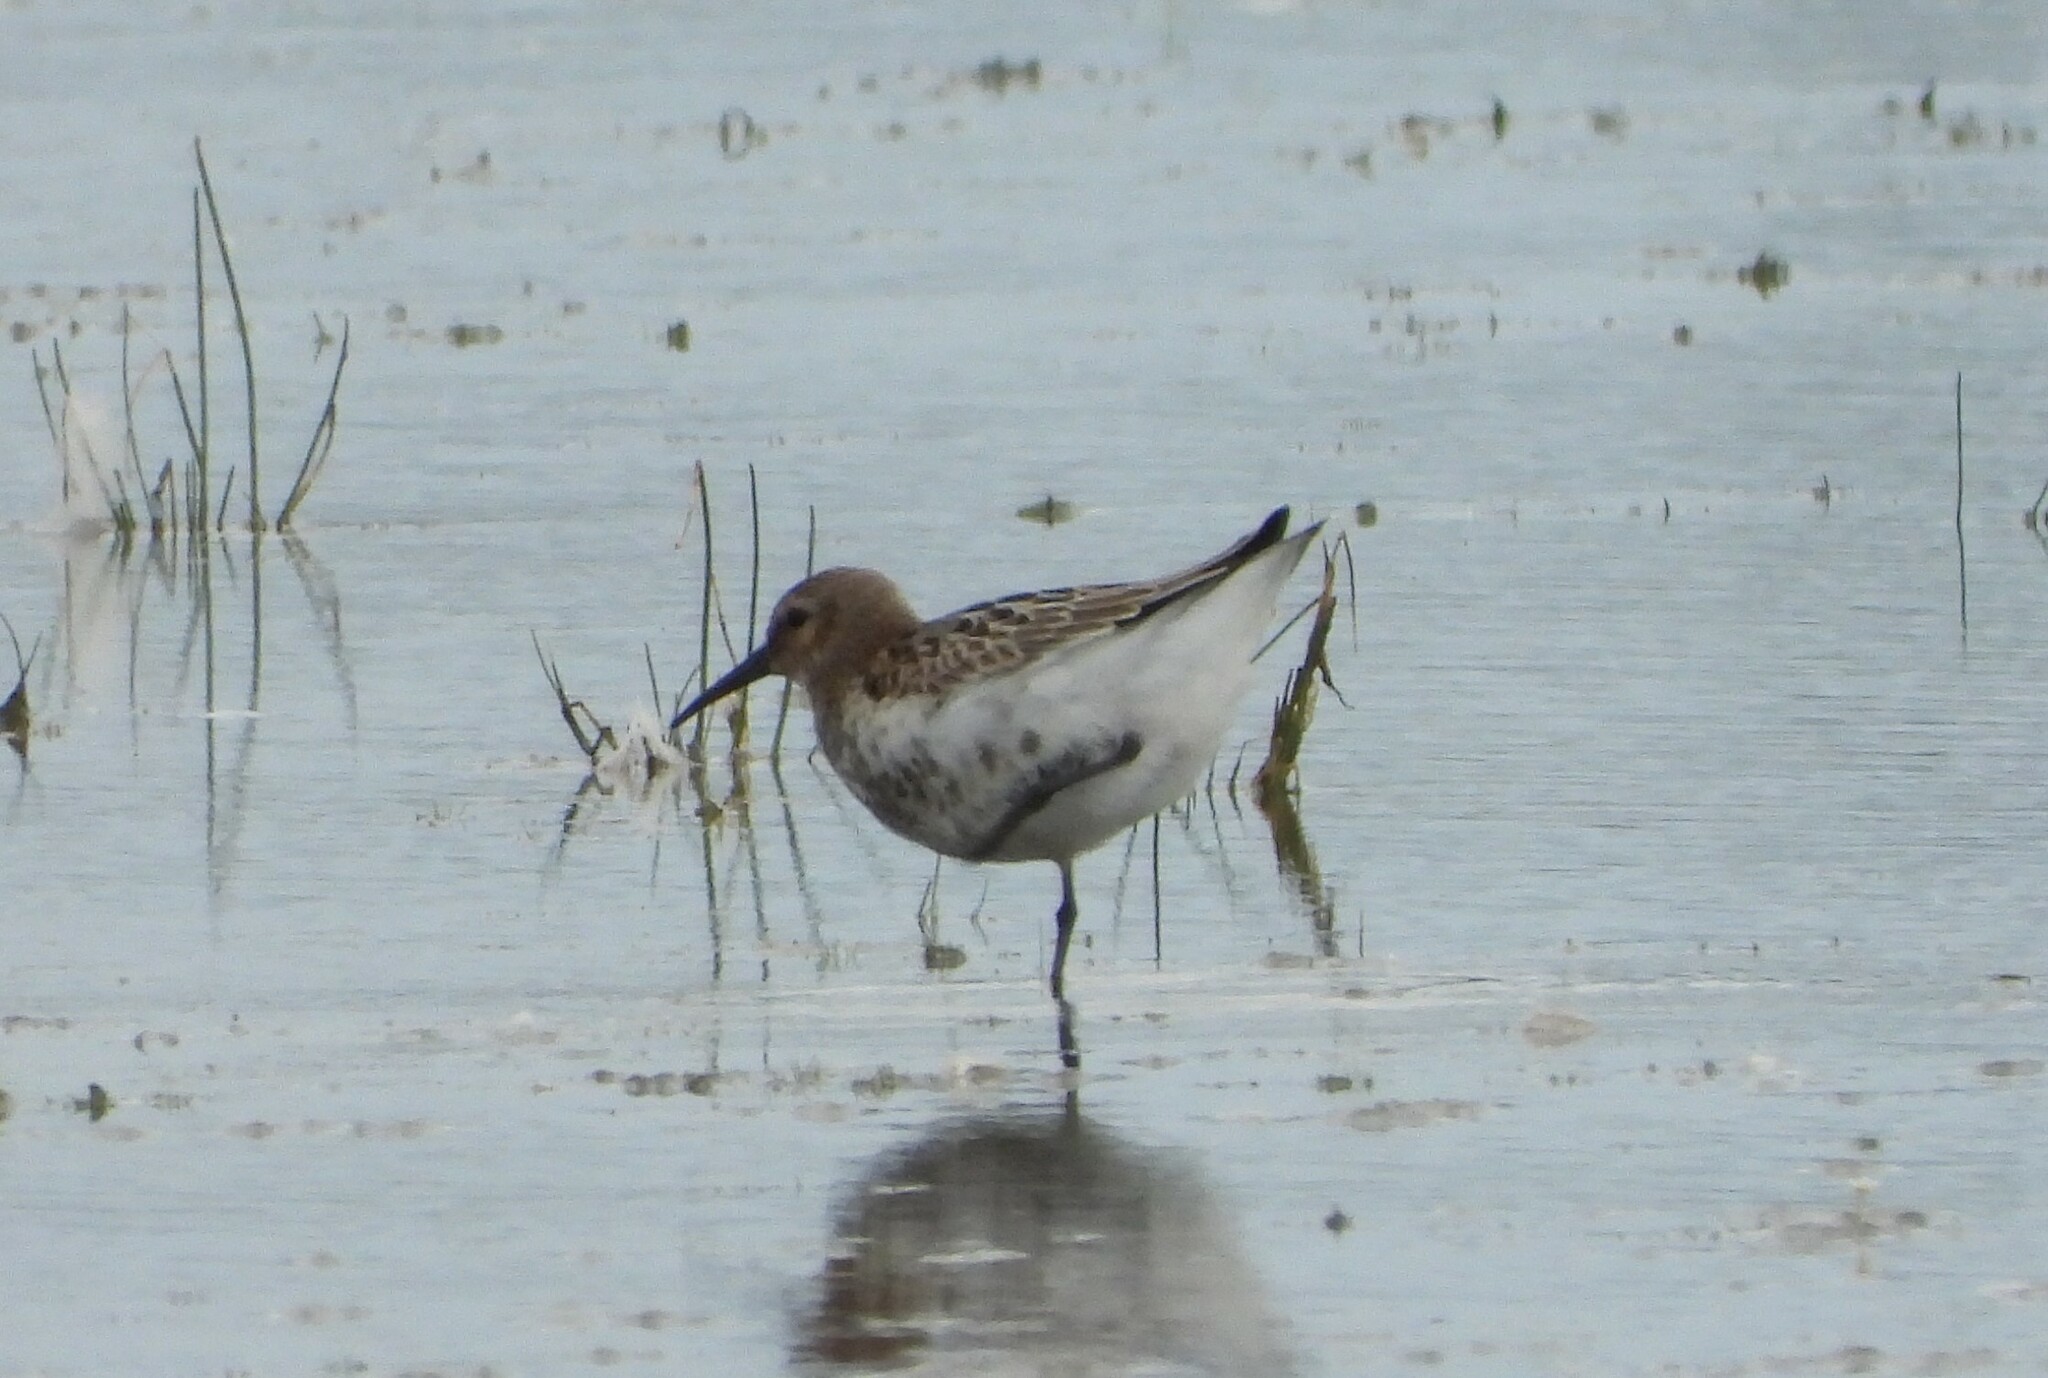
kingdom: Animalia
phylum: Chordata
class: Aves
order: Charadriiformes
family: Scolopacidae
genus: Calidris
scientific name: Calidris alpina
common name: Dunlin
